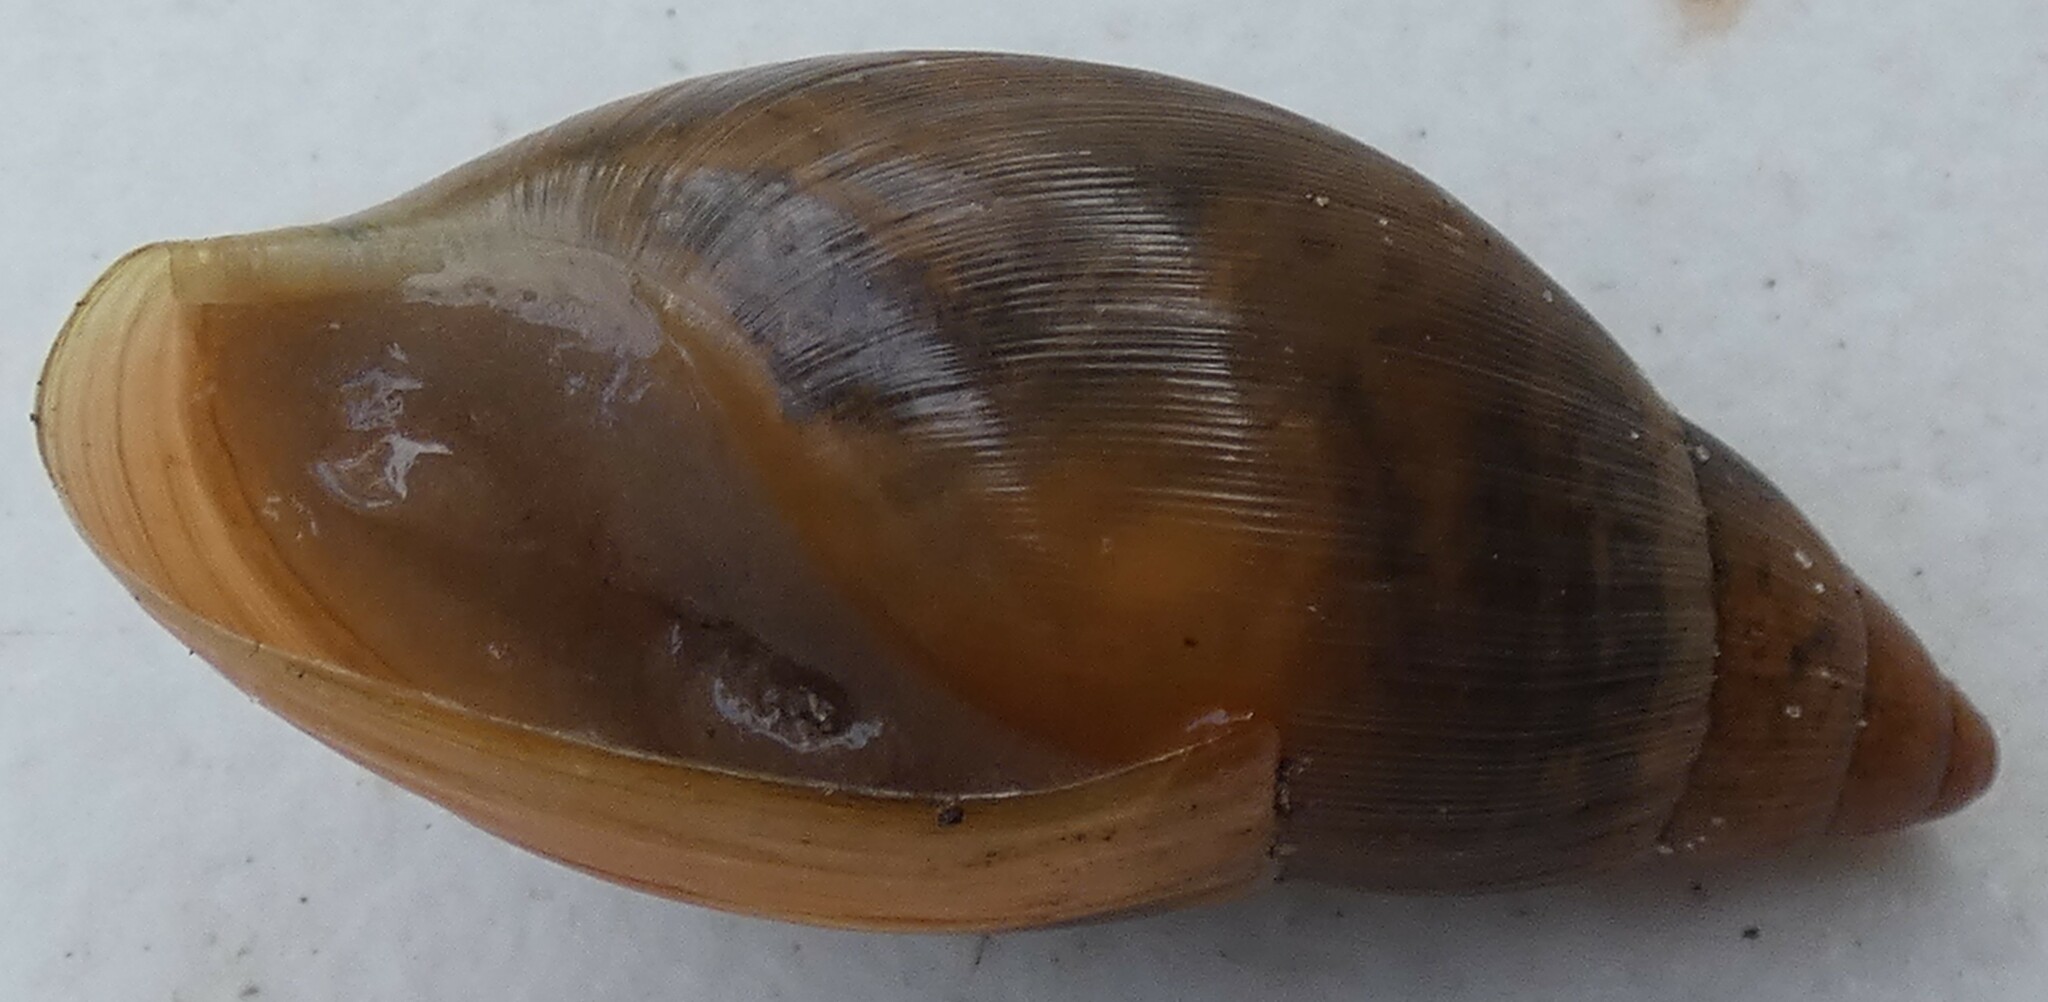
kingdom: Animalia
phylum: Mollusca
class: Gastropoda
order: Stylommatophora
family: Spiraxidae
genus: Euglandina
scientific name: Euglandina rosea
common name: Rosy wolfsnail
